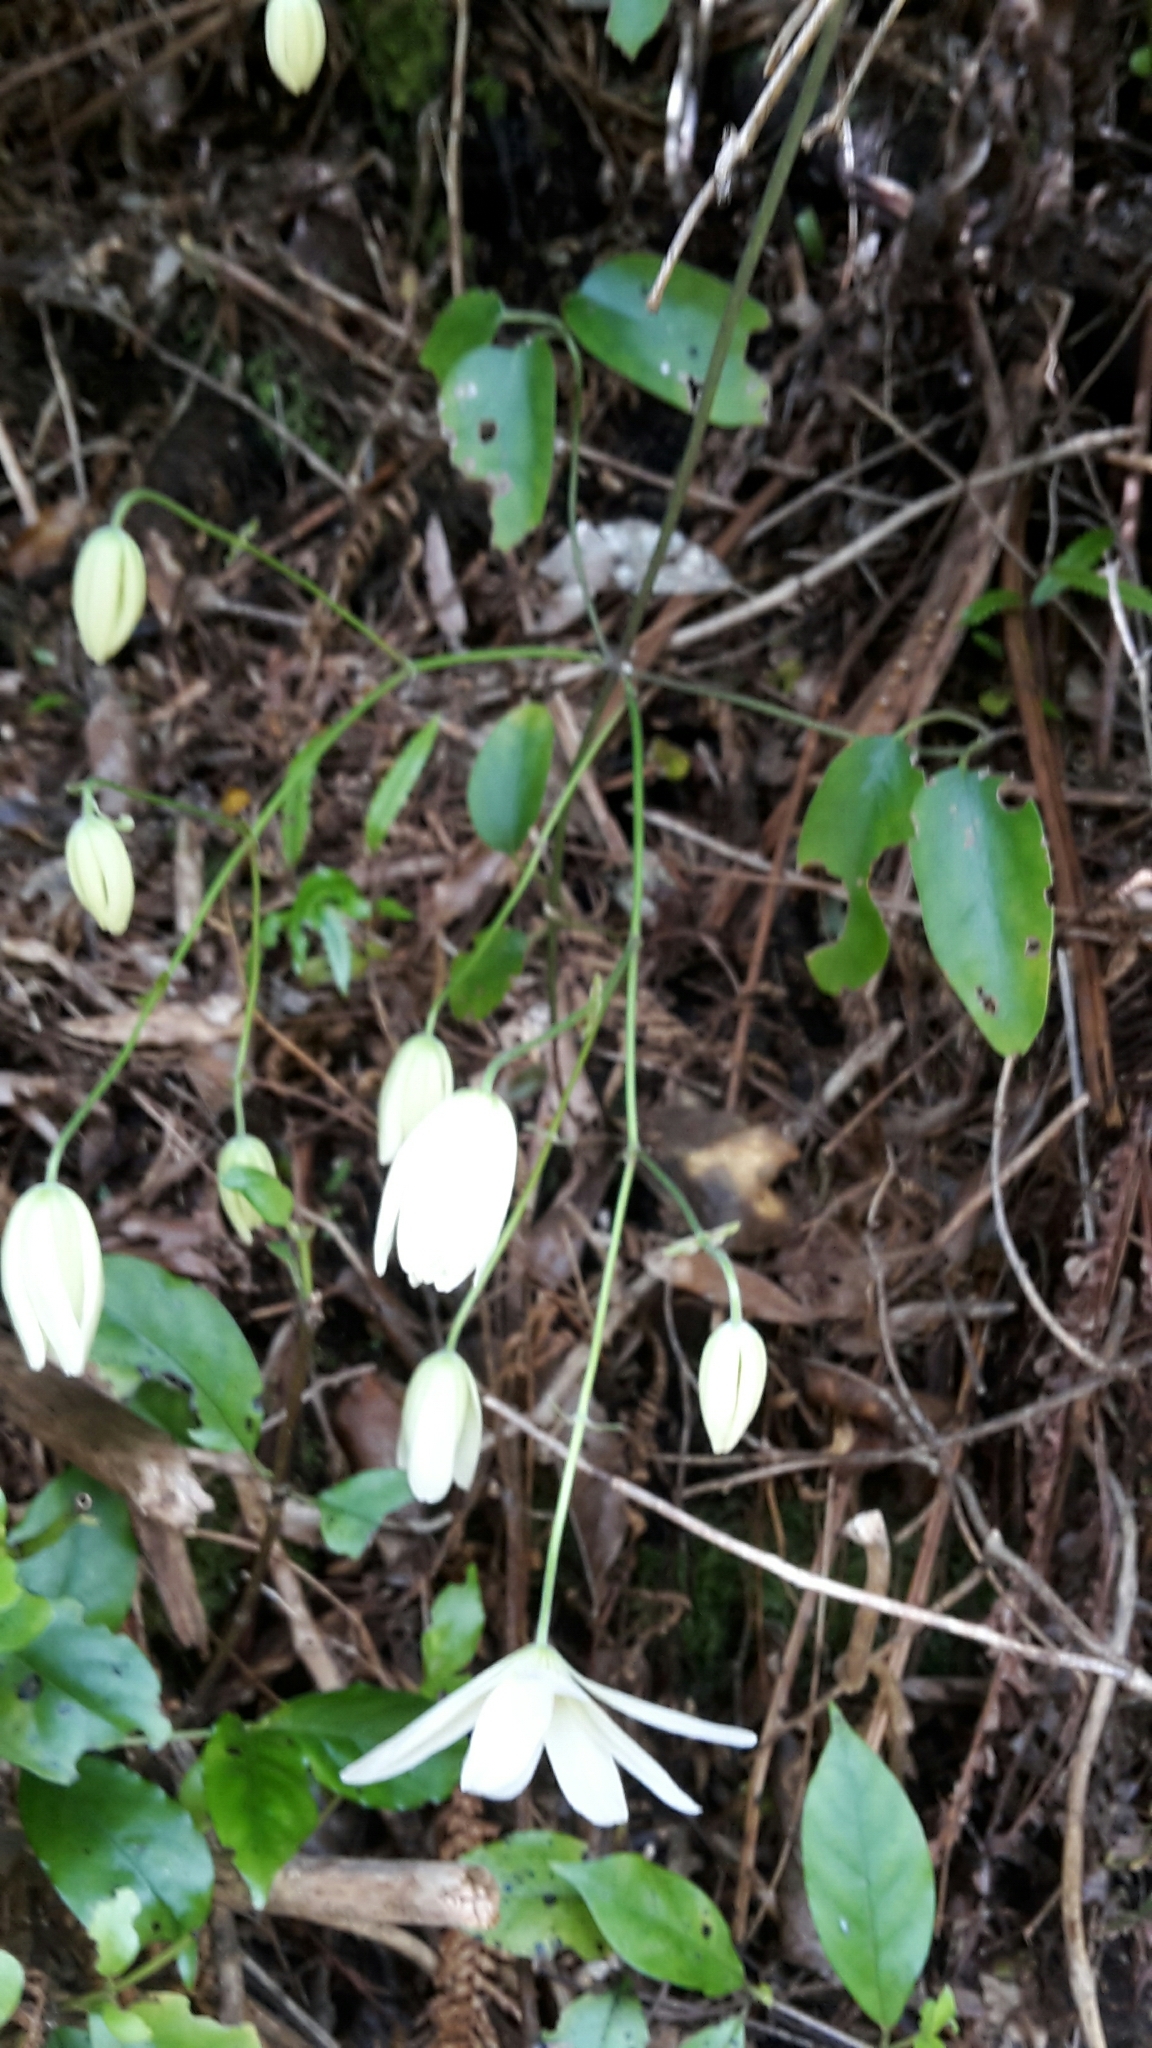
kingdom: Plantae
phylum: Tracheophyta
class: Magnoliopsida
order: Ranunculales
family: Ranunculaceae
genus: Clematis
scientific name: Clematis paniculata
